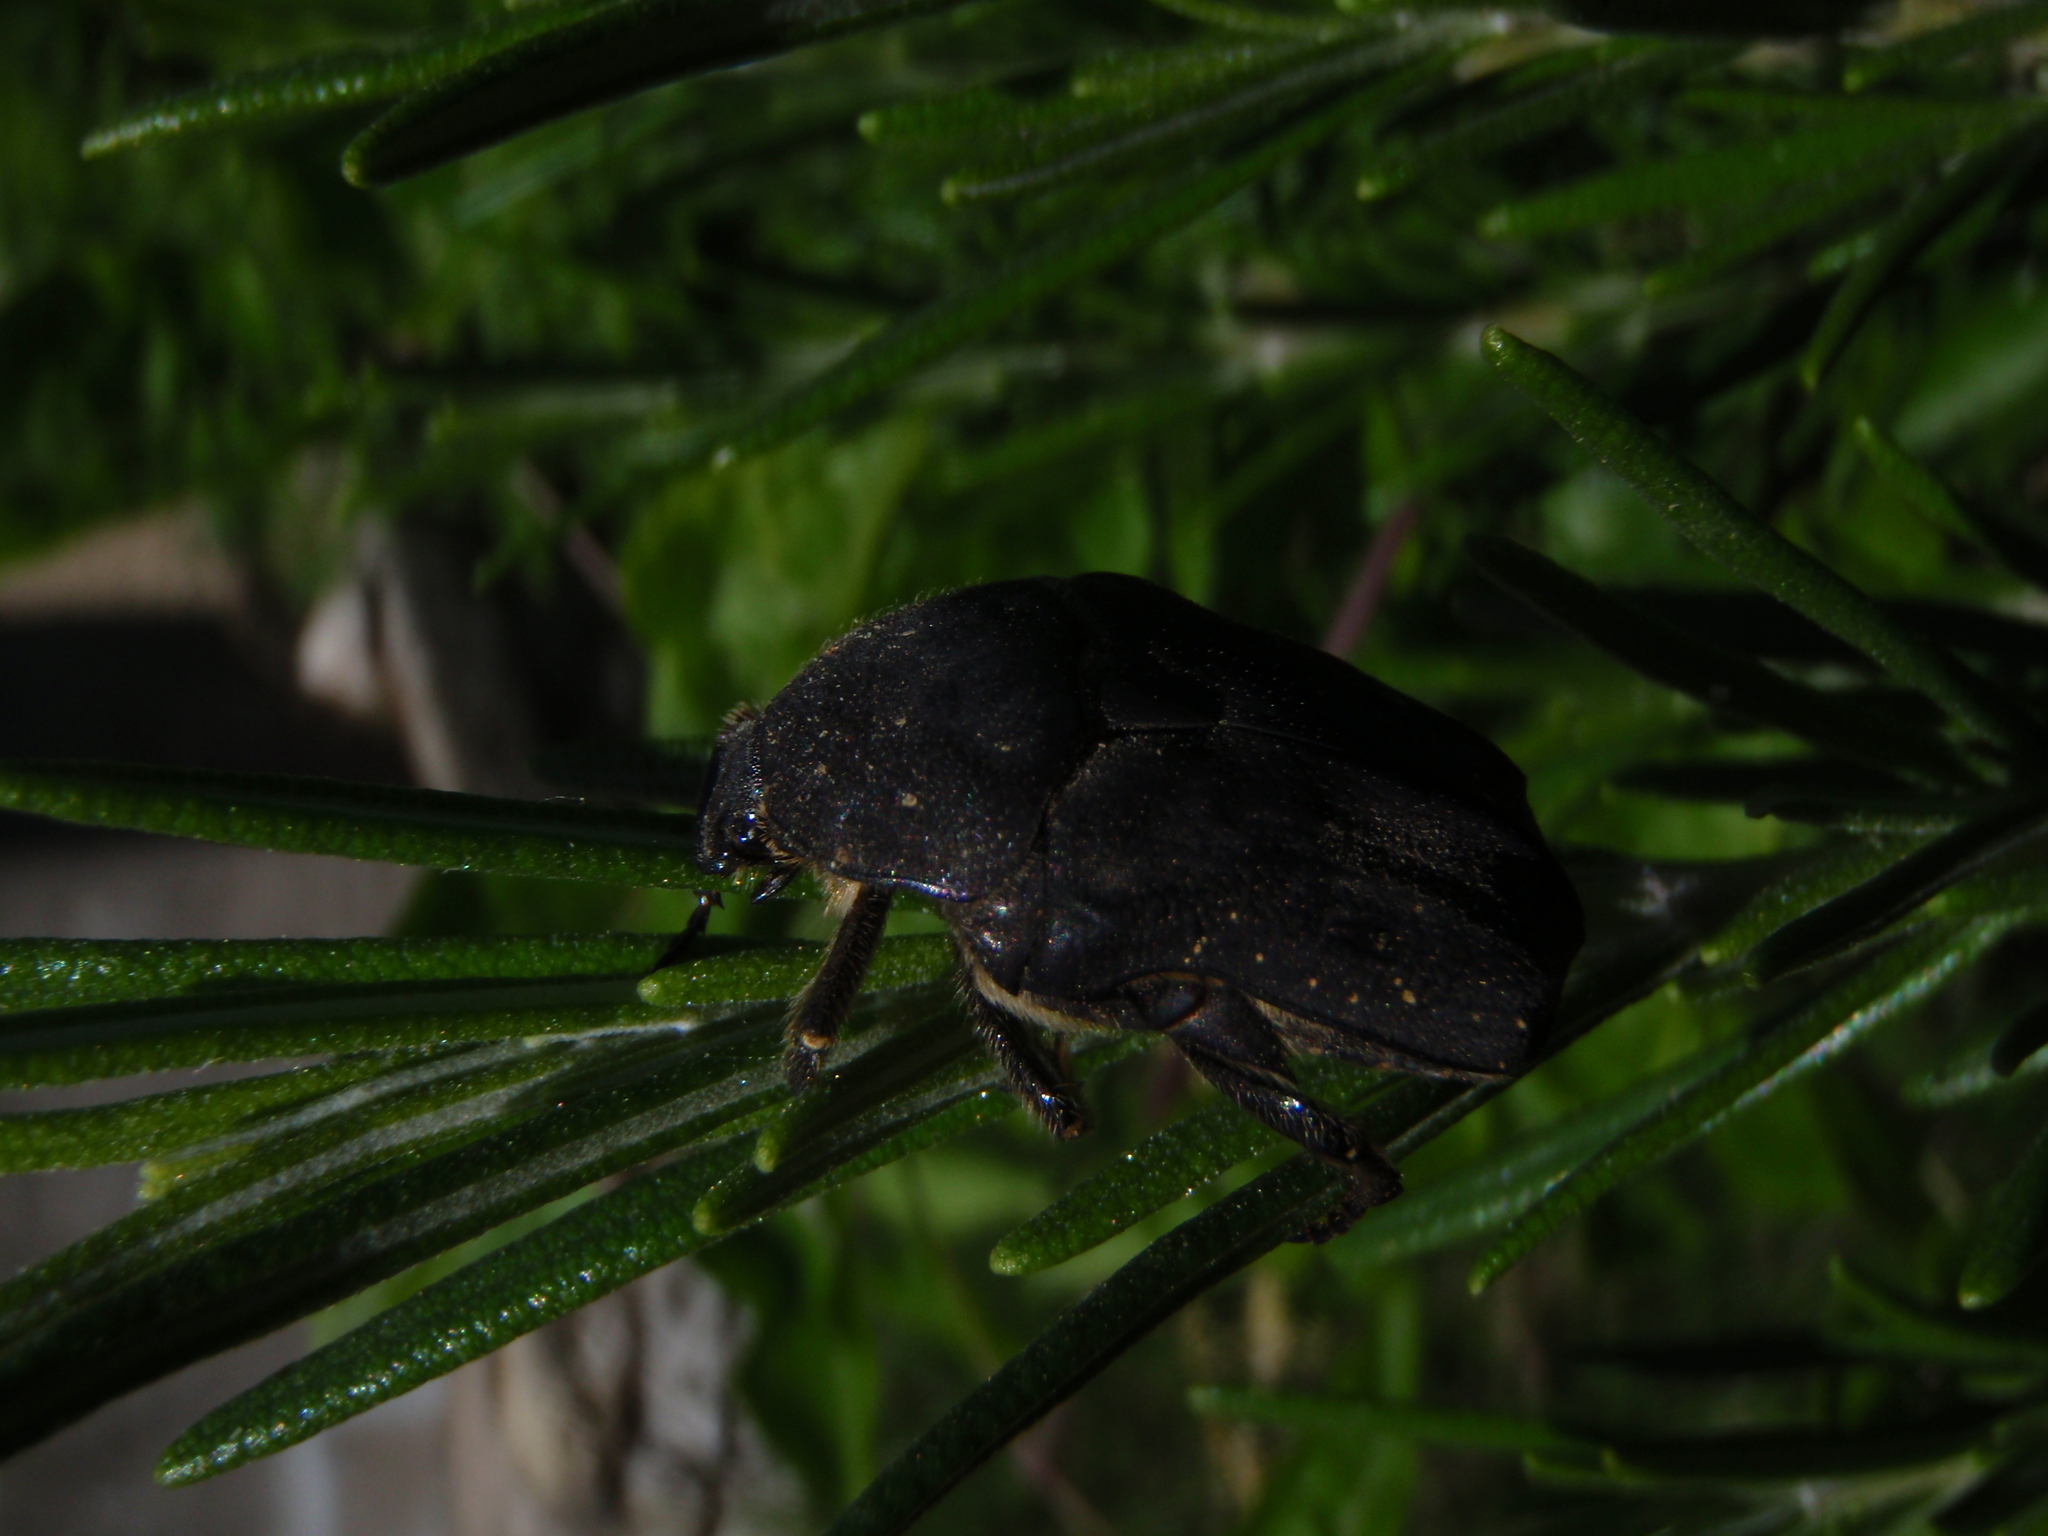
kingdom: Animalia
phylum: Arthropoda
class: Insecta
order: Coleoptera
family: Scarabaeidae
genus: Protaetia
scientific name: Protaetia morio
